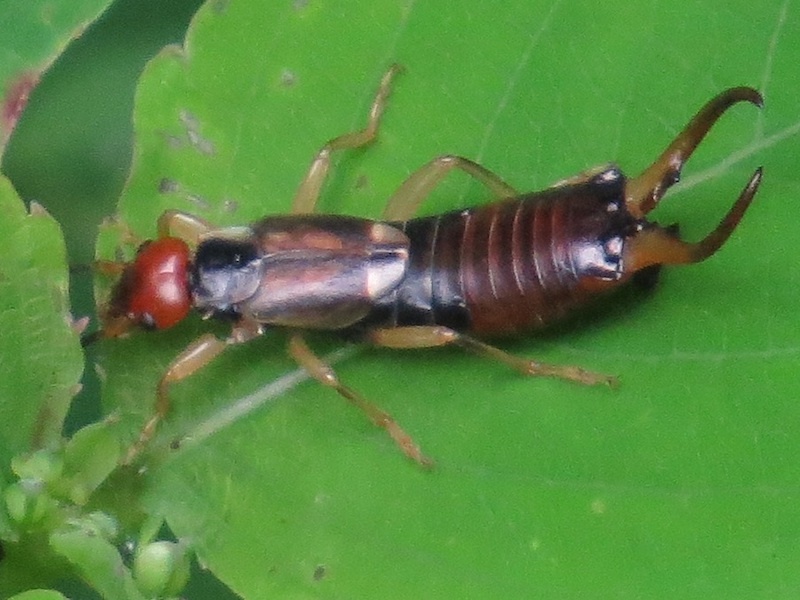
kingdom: Animalia
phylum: Arthropoda
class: Insecta
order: Dermaptera
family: Forficulidae
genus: Forficula
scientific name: Forficula
